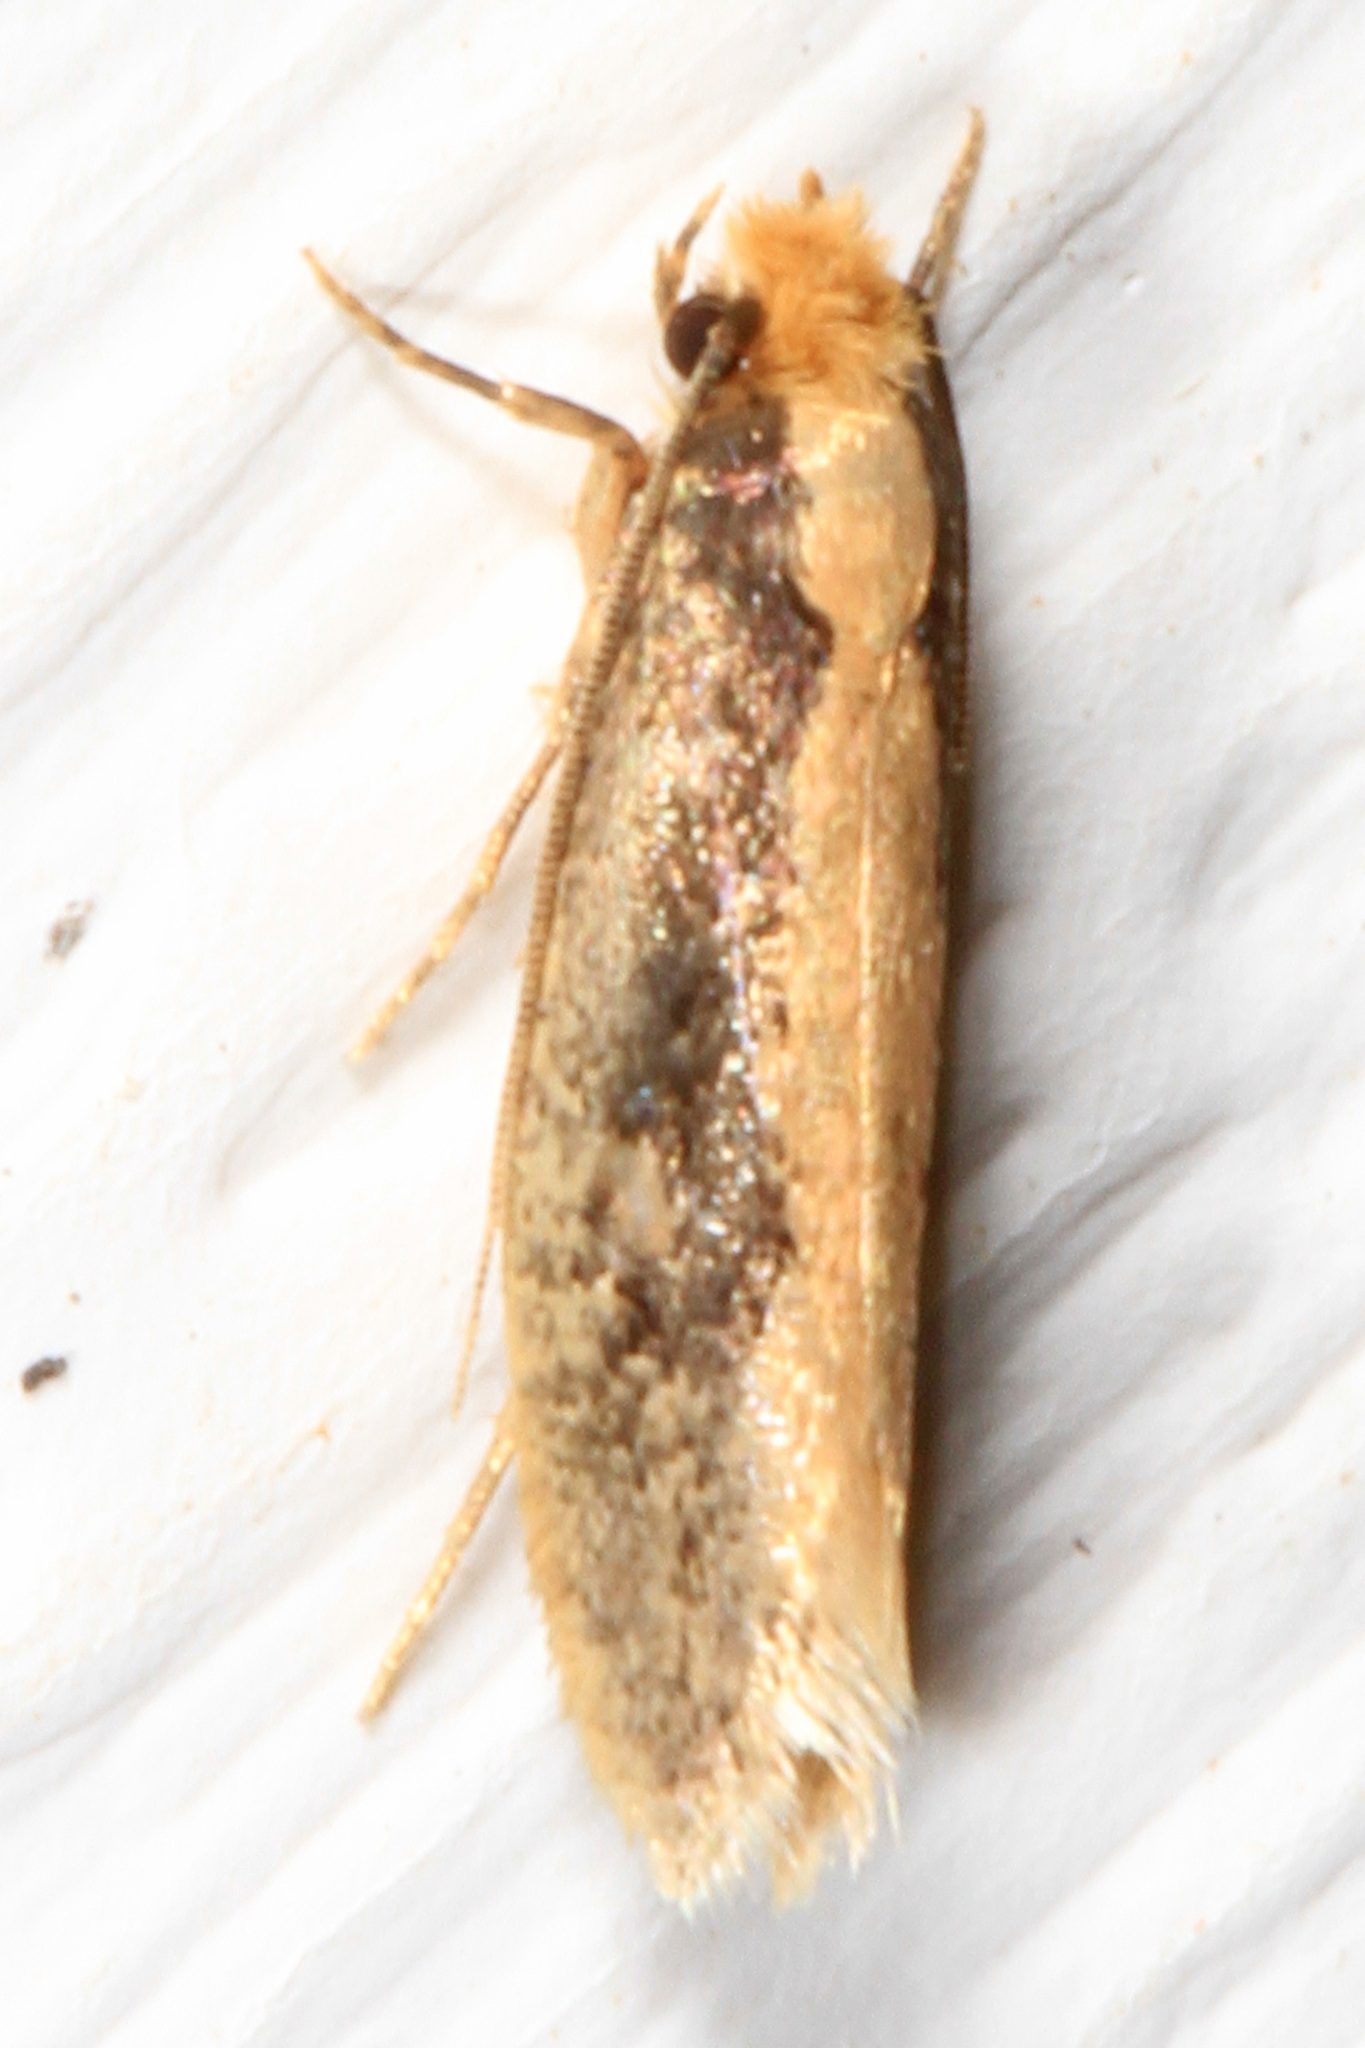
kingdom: Animalia
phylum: Arthropoda
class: Insecta
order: Lepidoptera
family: Tineidae
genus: Monopis
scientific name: Monopis crocicapitella
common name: Moth
